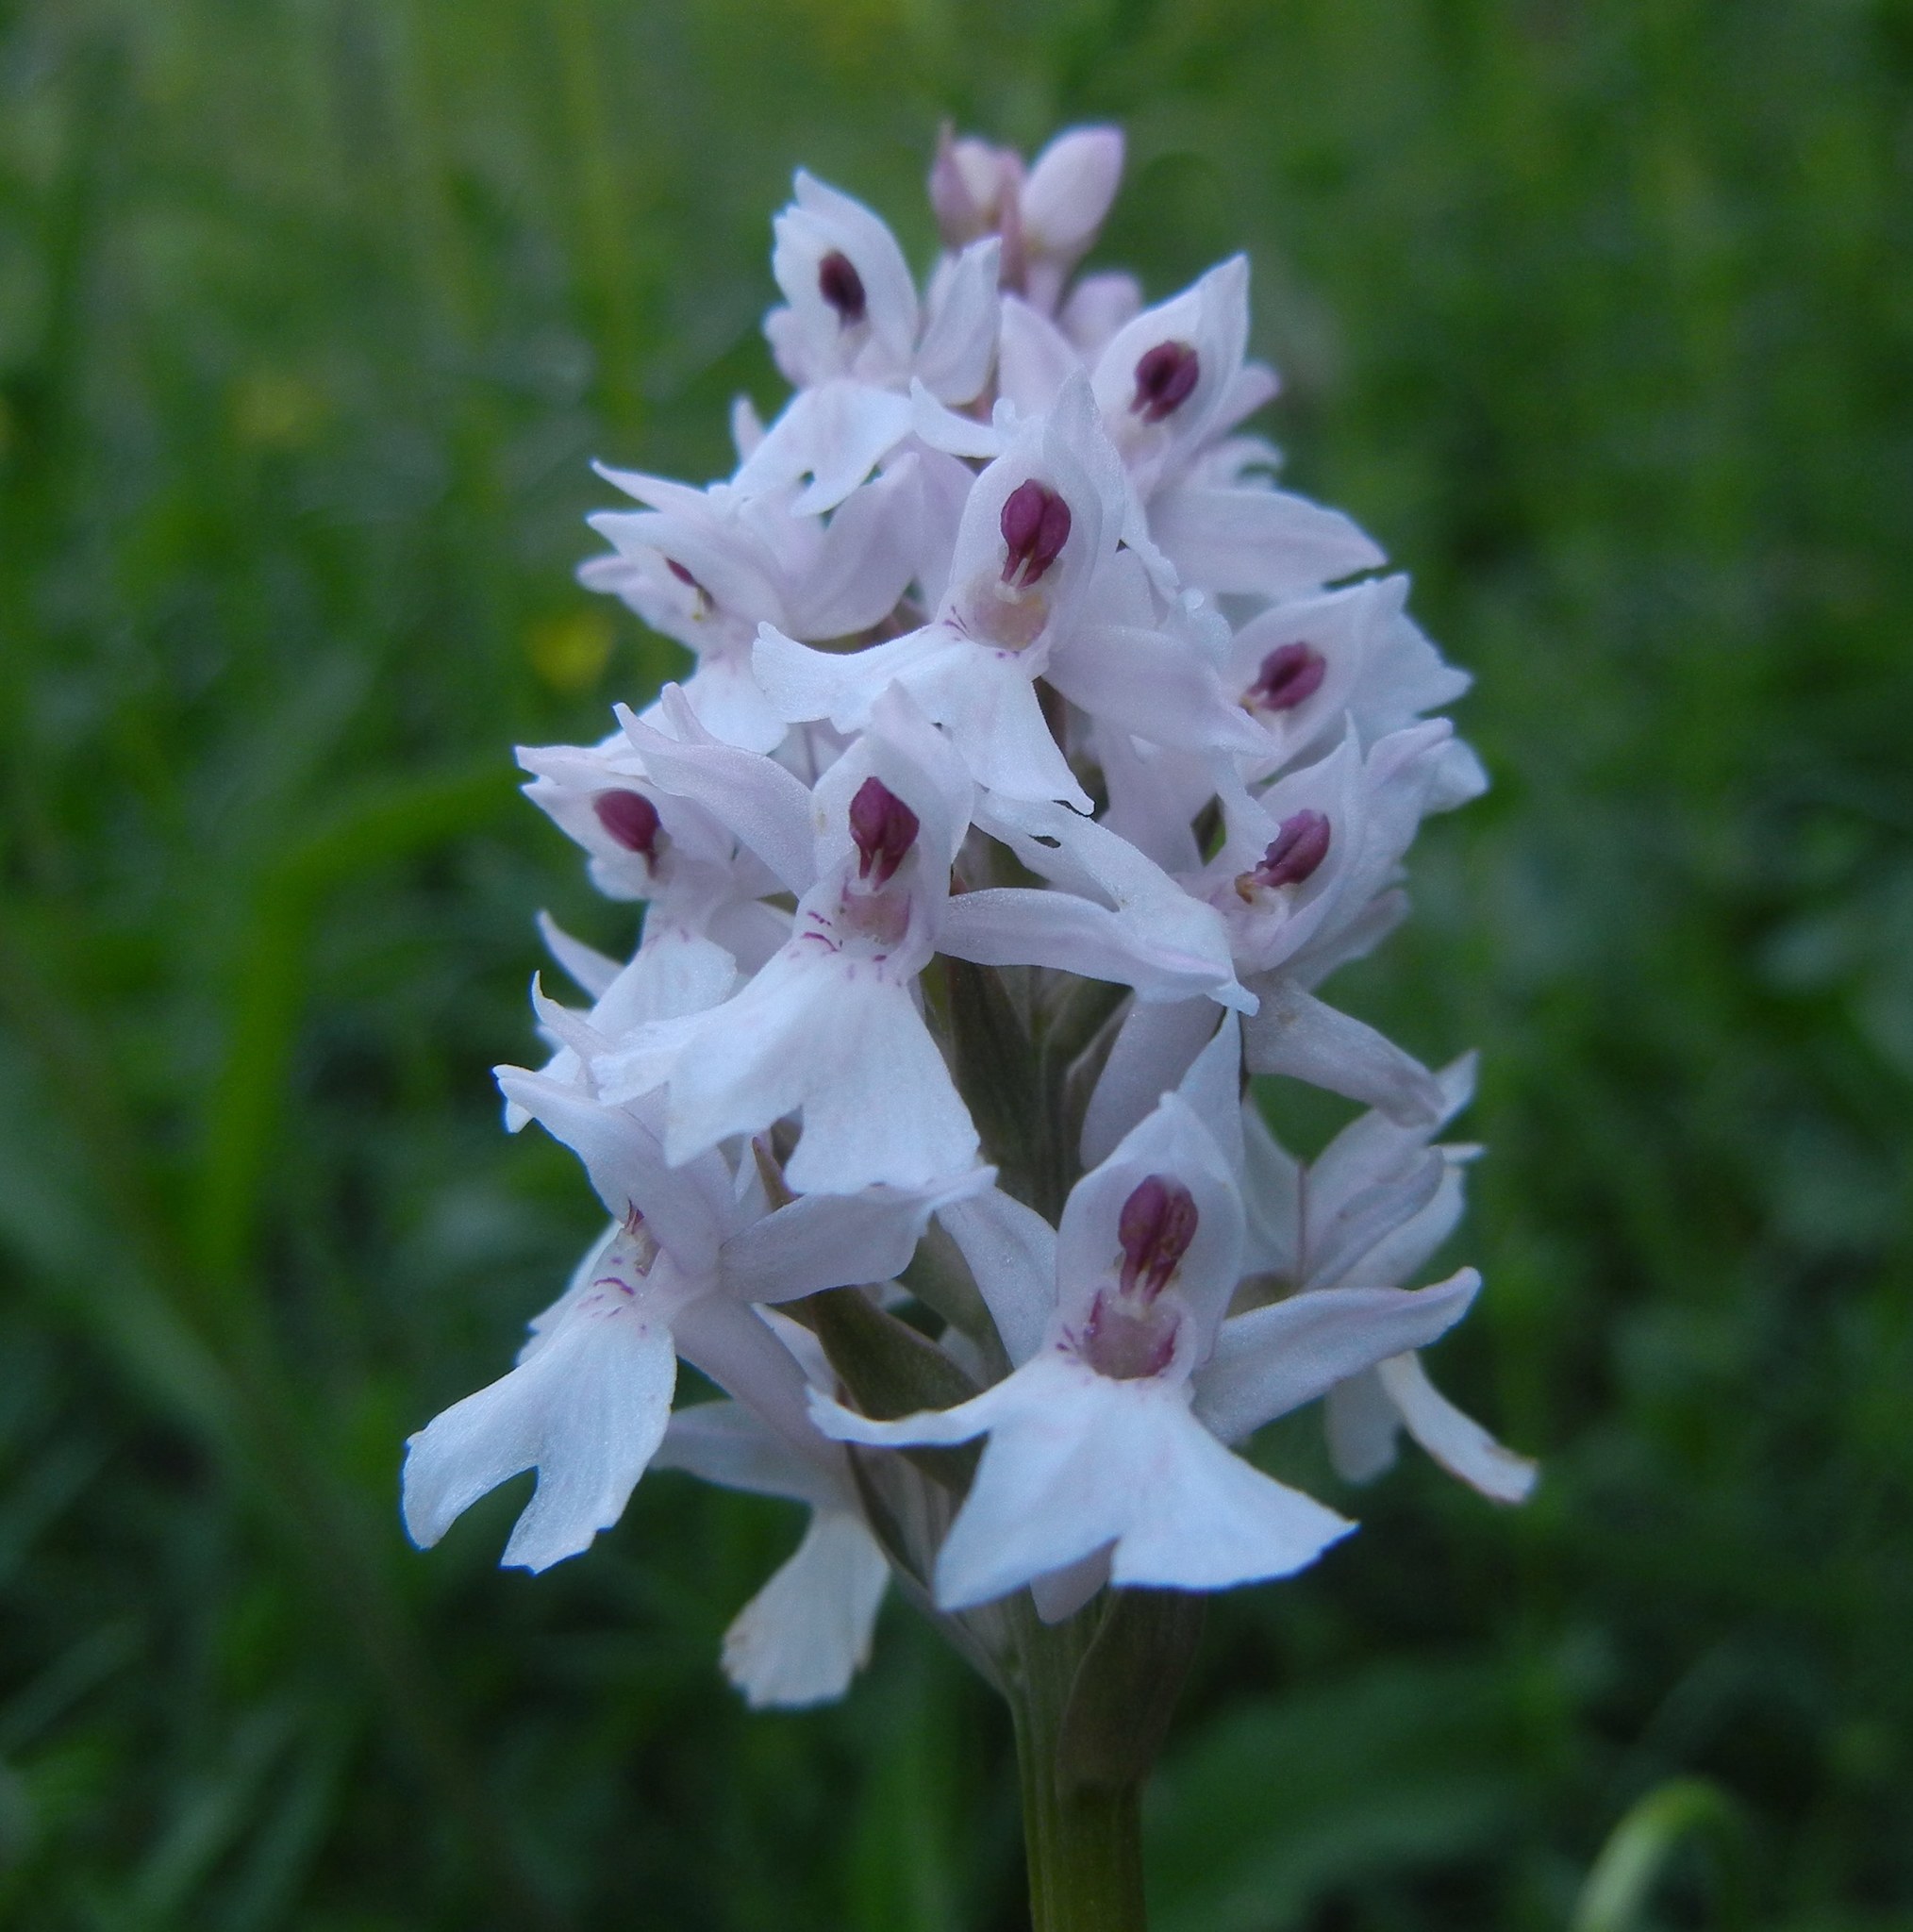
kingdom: Plantae
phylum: Tracheophyta
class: Liliopsida
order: Asparagales
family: Orchidaceae
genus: Dactylorhiza
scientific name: Dactylorhiza maculata
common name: Heath spotted-orchid
